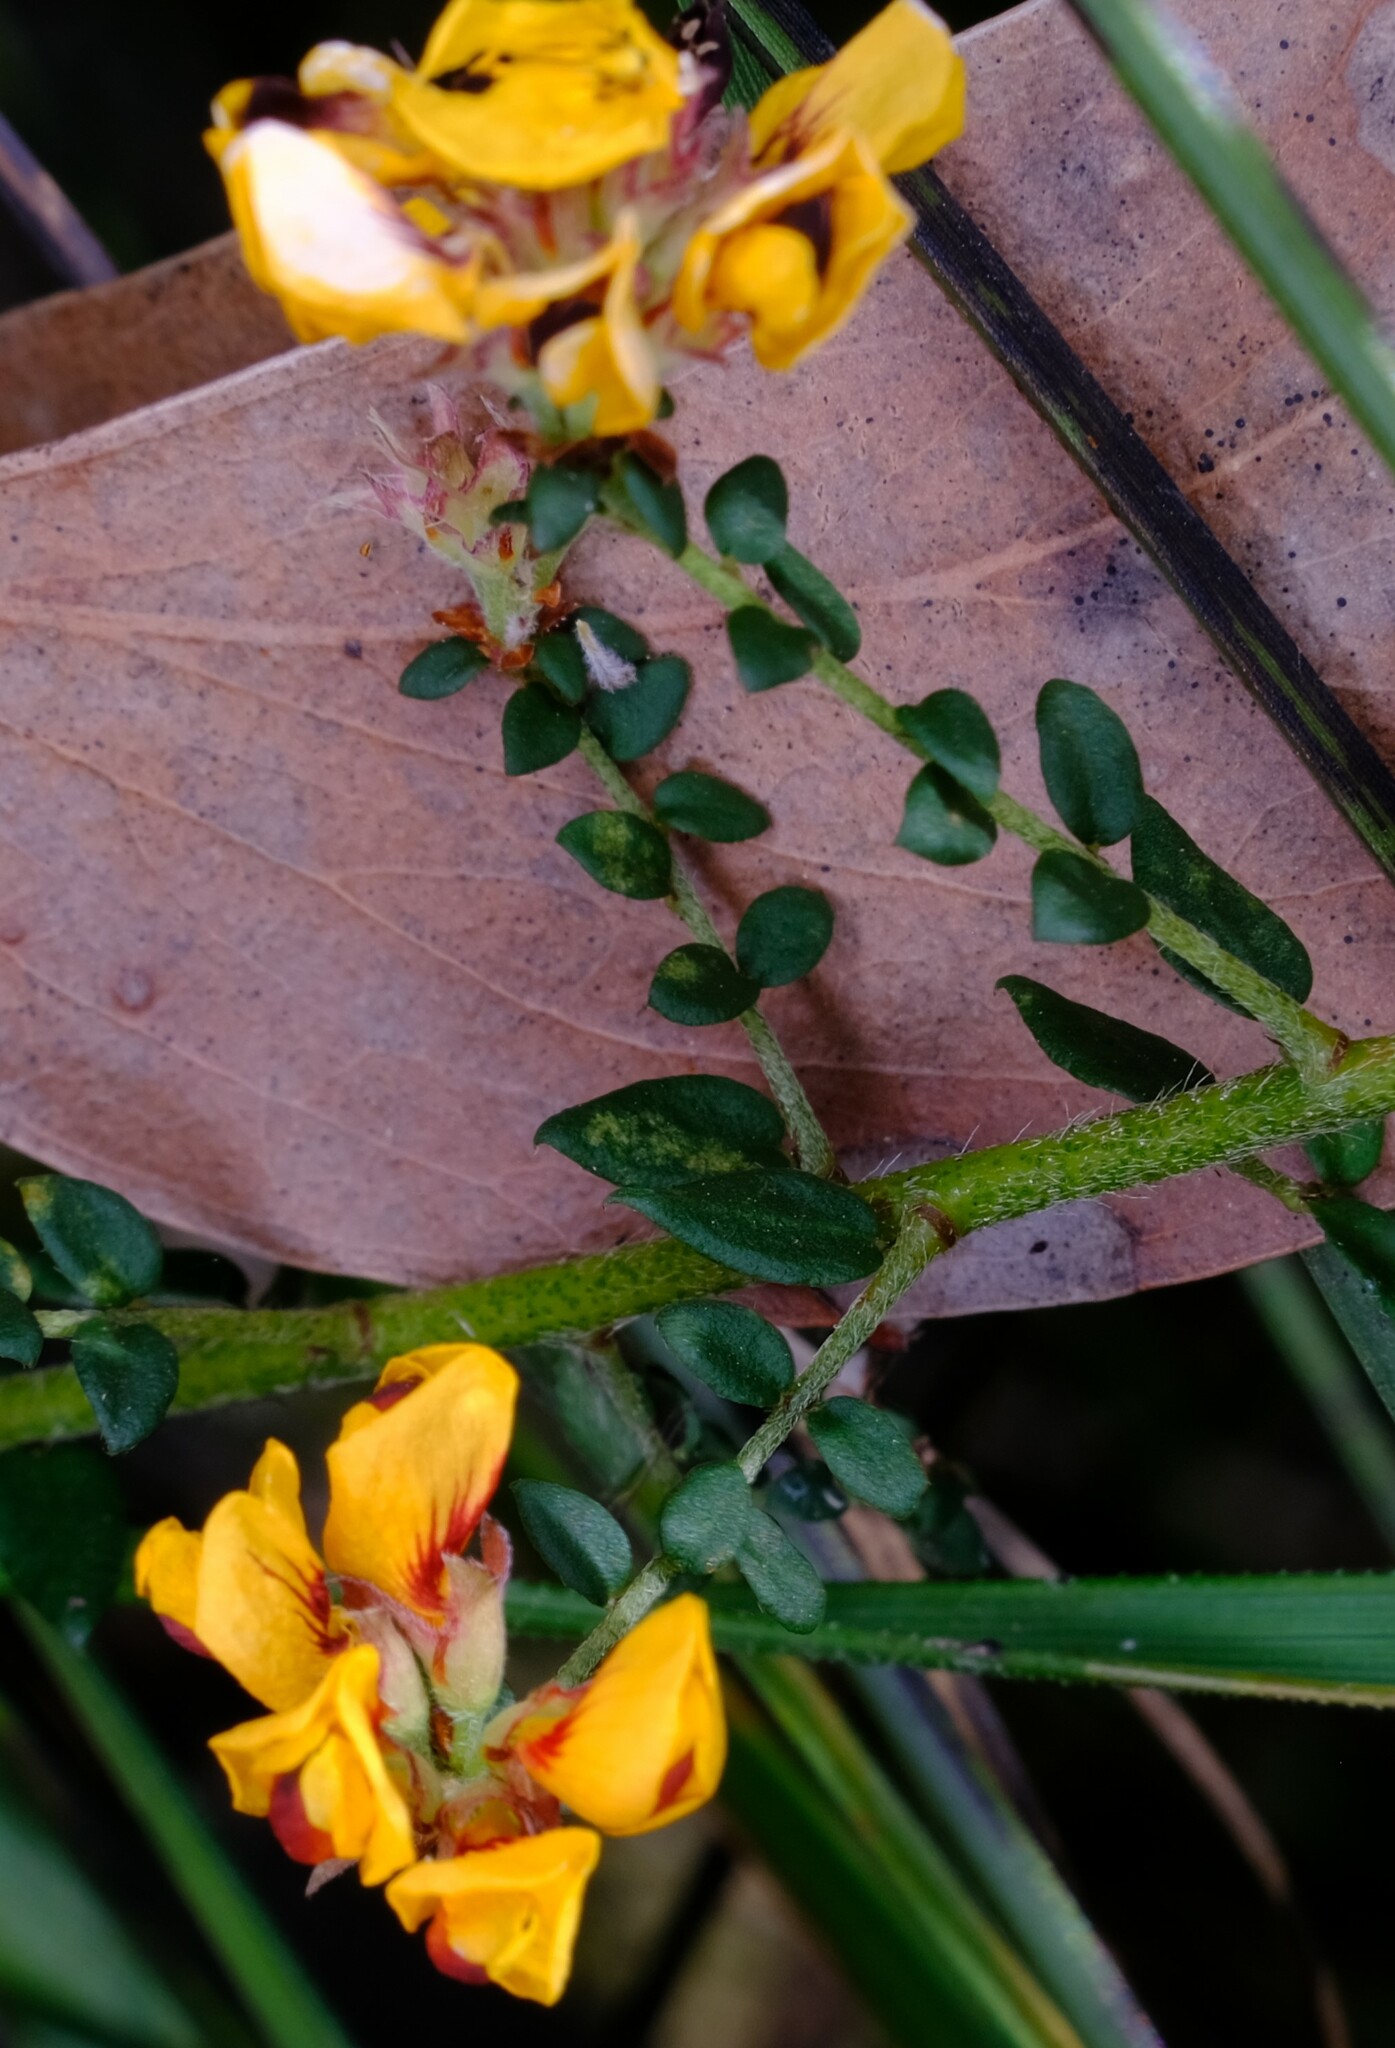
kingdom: Plantae
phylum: Tracheophyta
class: Magnoliopsida
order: Fabales
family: Fabaceae
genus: Pultenaea
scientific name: Pultenaea gunnii
